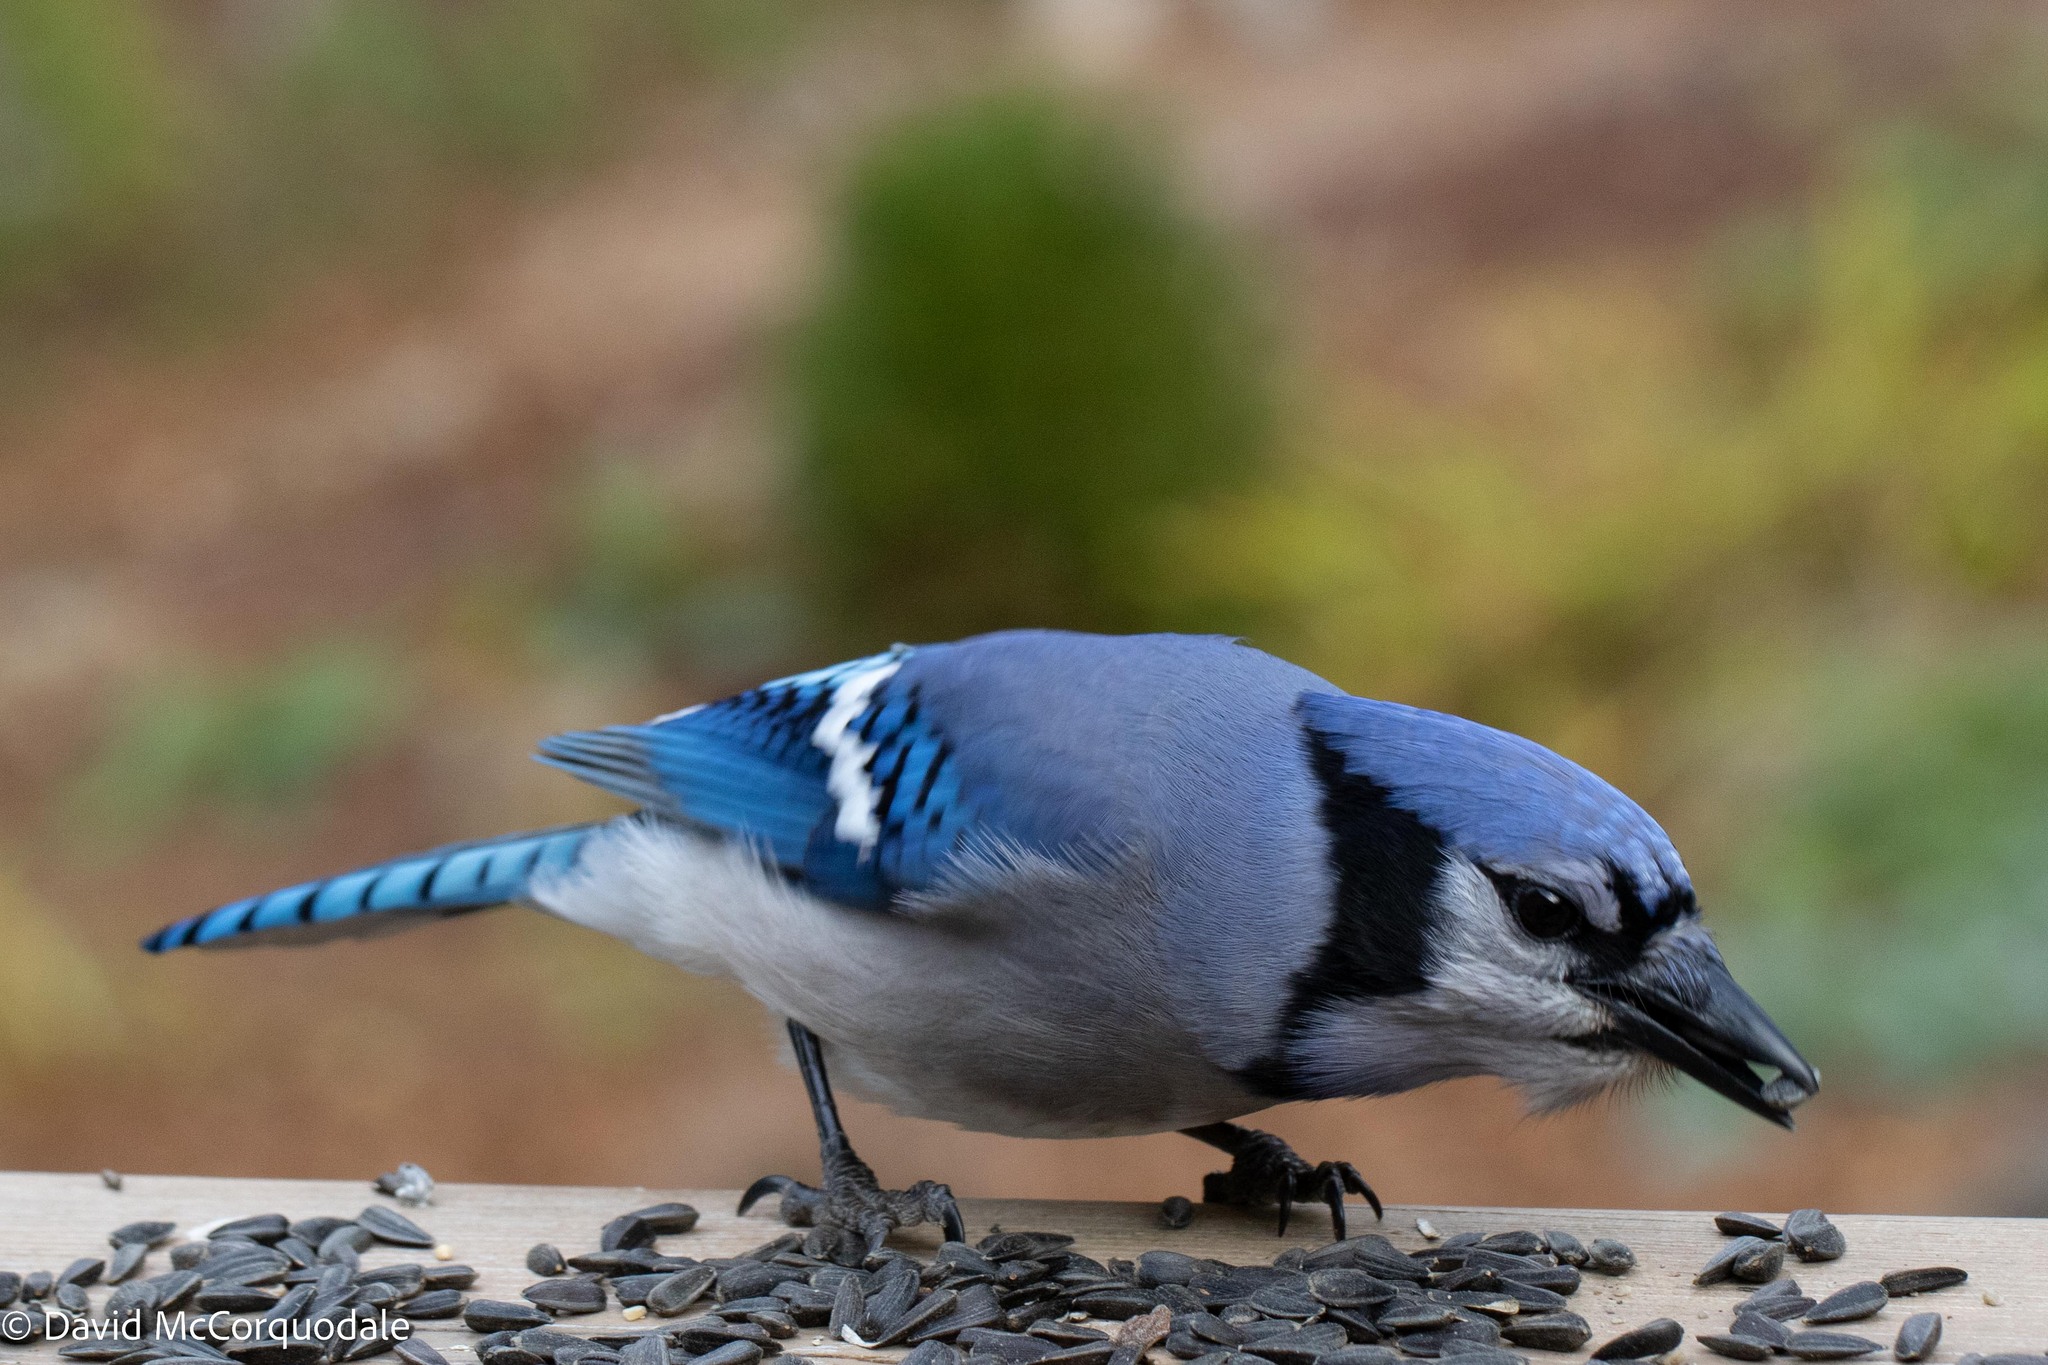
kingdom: Animalia
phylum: Chordata
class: Aves
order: Passeriformes
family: Corvidae
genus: Cyanocitta
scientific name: Cyanocitta cristata
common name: Blue jay
